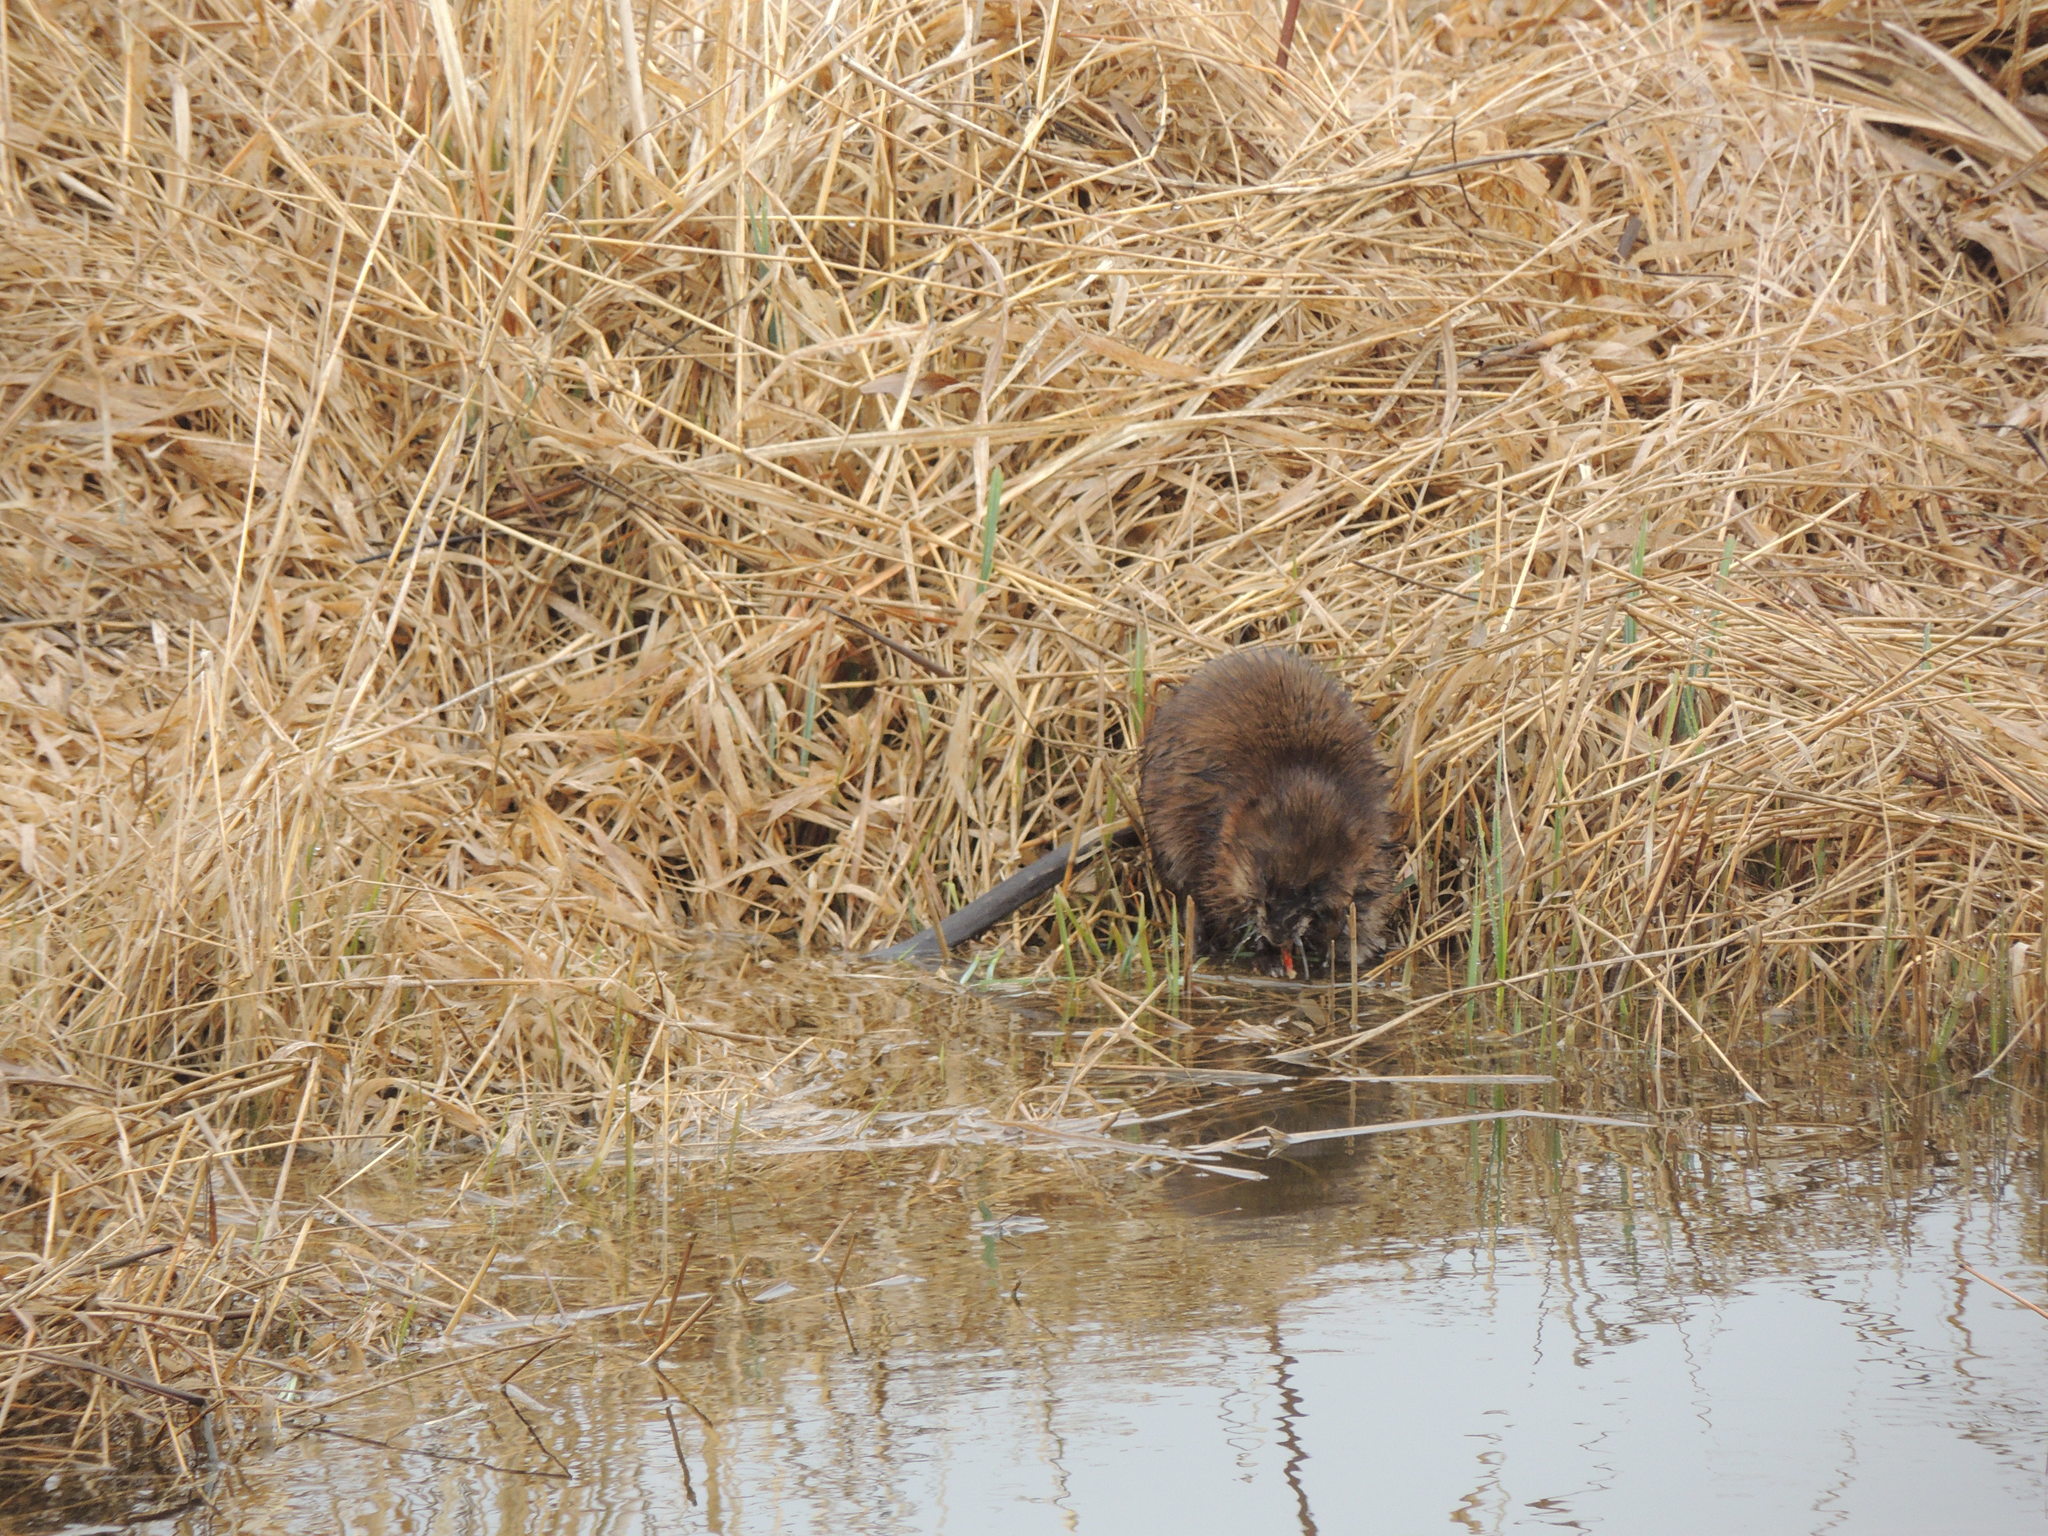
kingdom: Animalia
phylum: Chordata
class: Mammalia
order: Rodentia
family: Cricetidae
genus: Ondatra
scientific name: Ondatra zibethicus
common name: Muskrat
